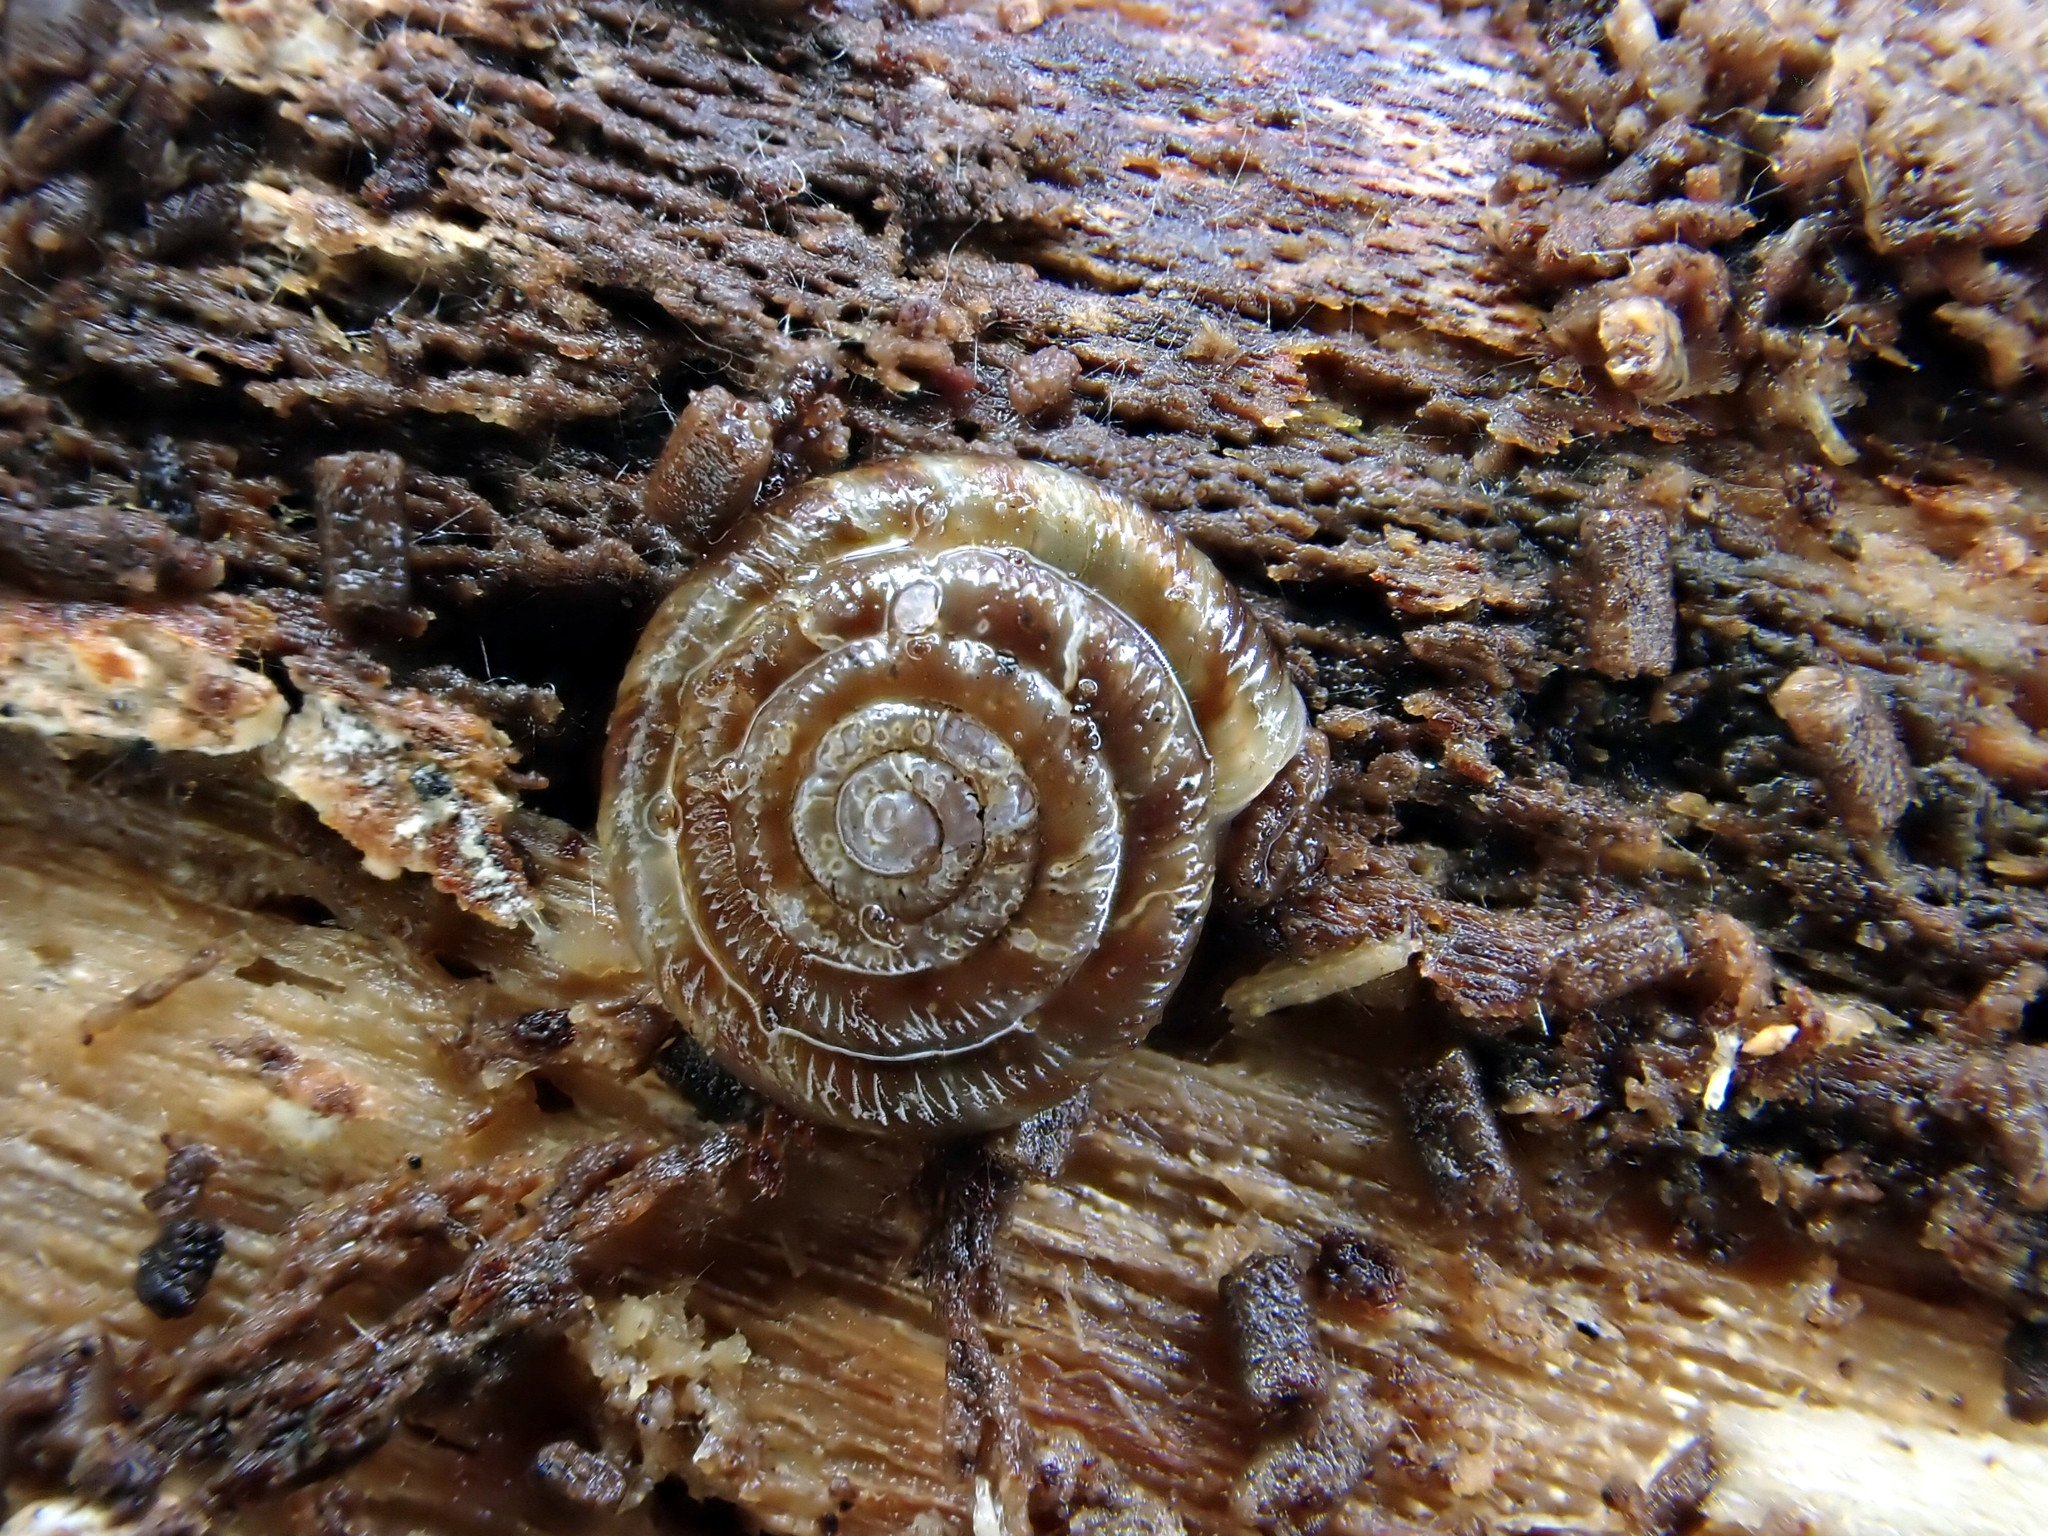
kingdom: Animalia
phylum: Mollusca
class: Gastropoda
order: Stylommatophora
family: Discidae
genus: Discus
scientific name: Discus rotundatus
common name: Rounded snail
